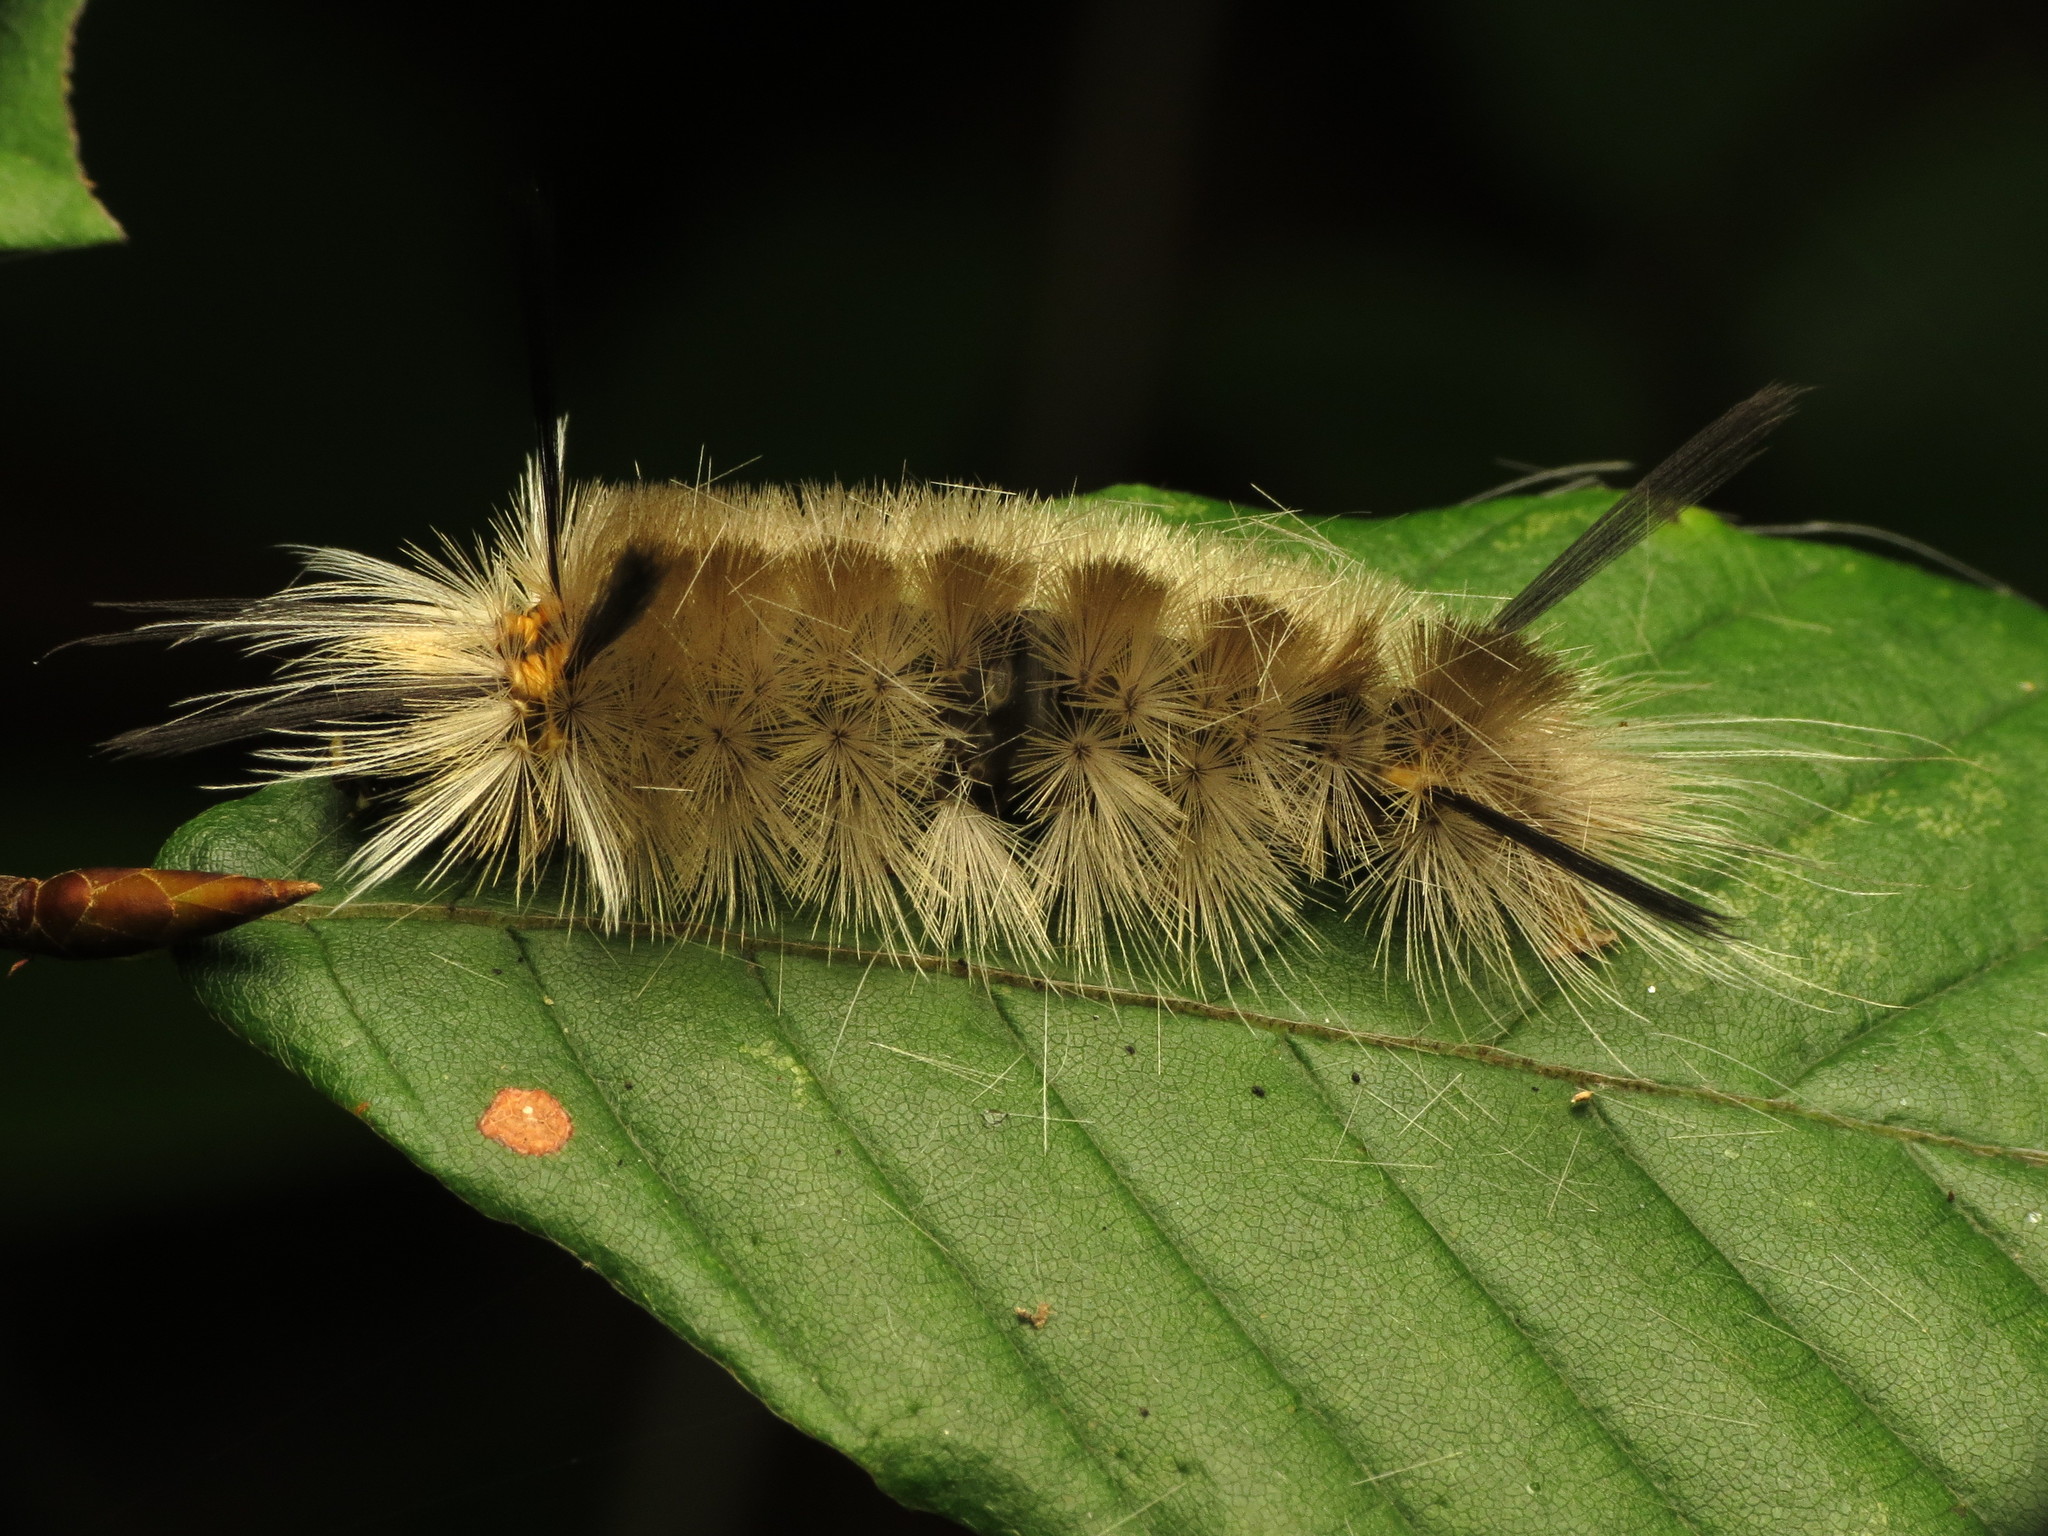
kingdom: Animalia
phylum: Arthropoda
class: Insecta
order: Lepidoptera
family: Erebidae
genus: Halysidota
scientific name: Halysidota tessellaris
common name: Banded tussock moth
